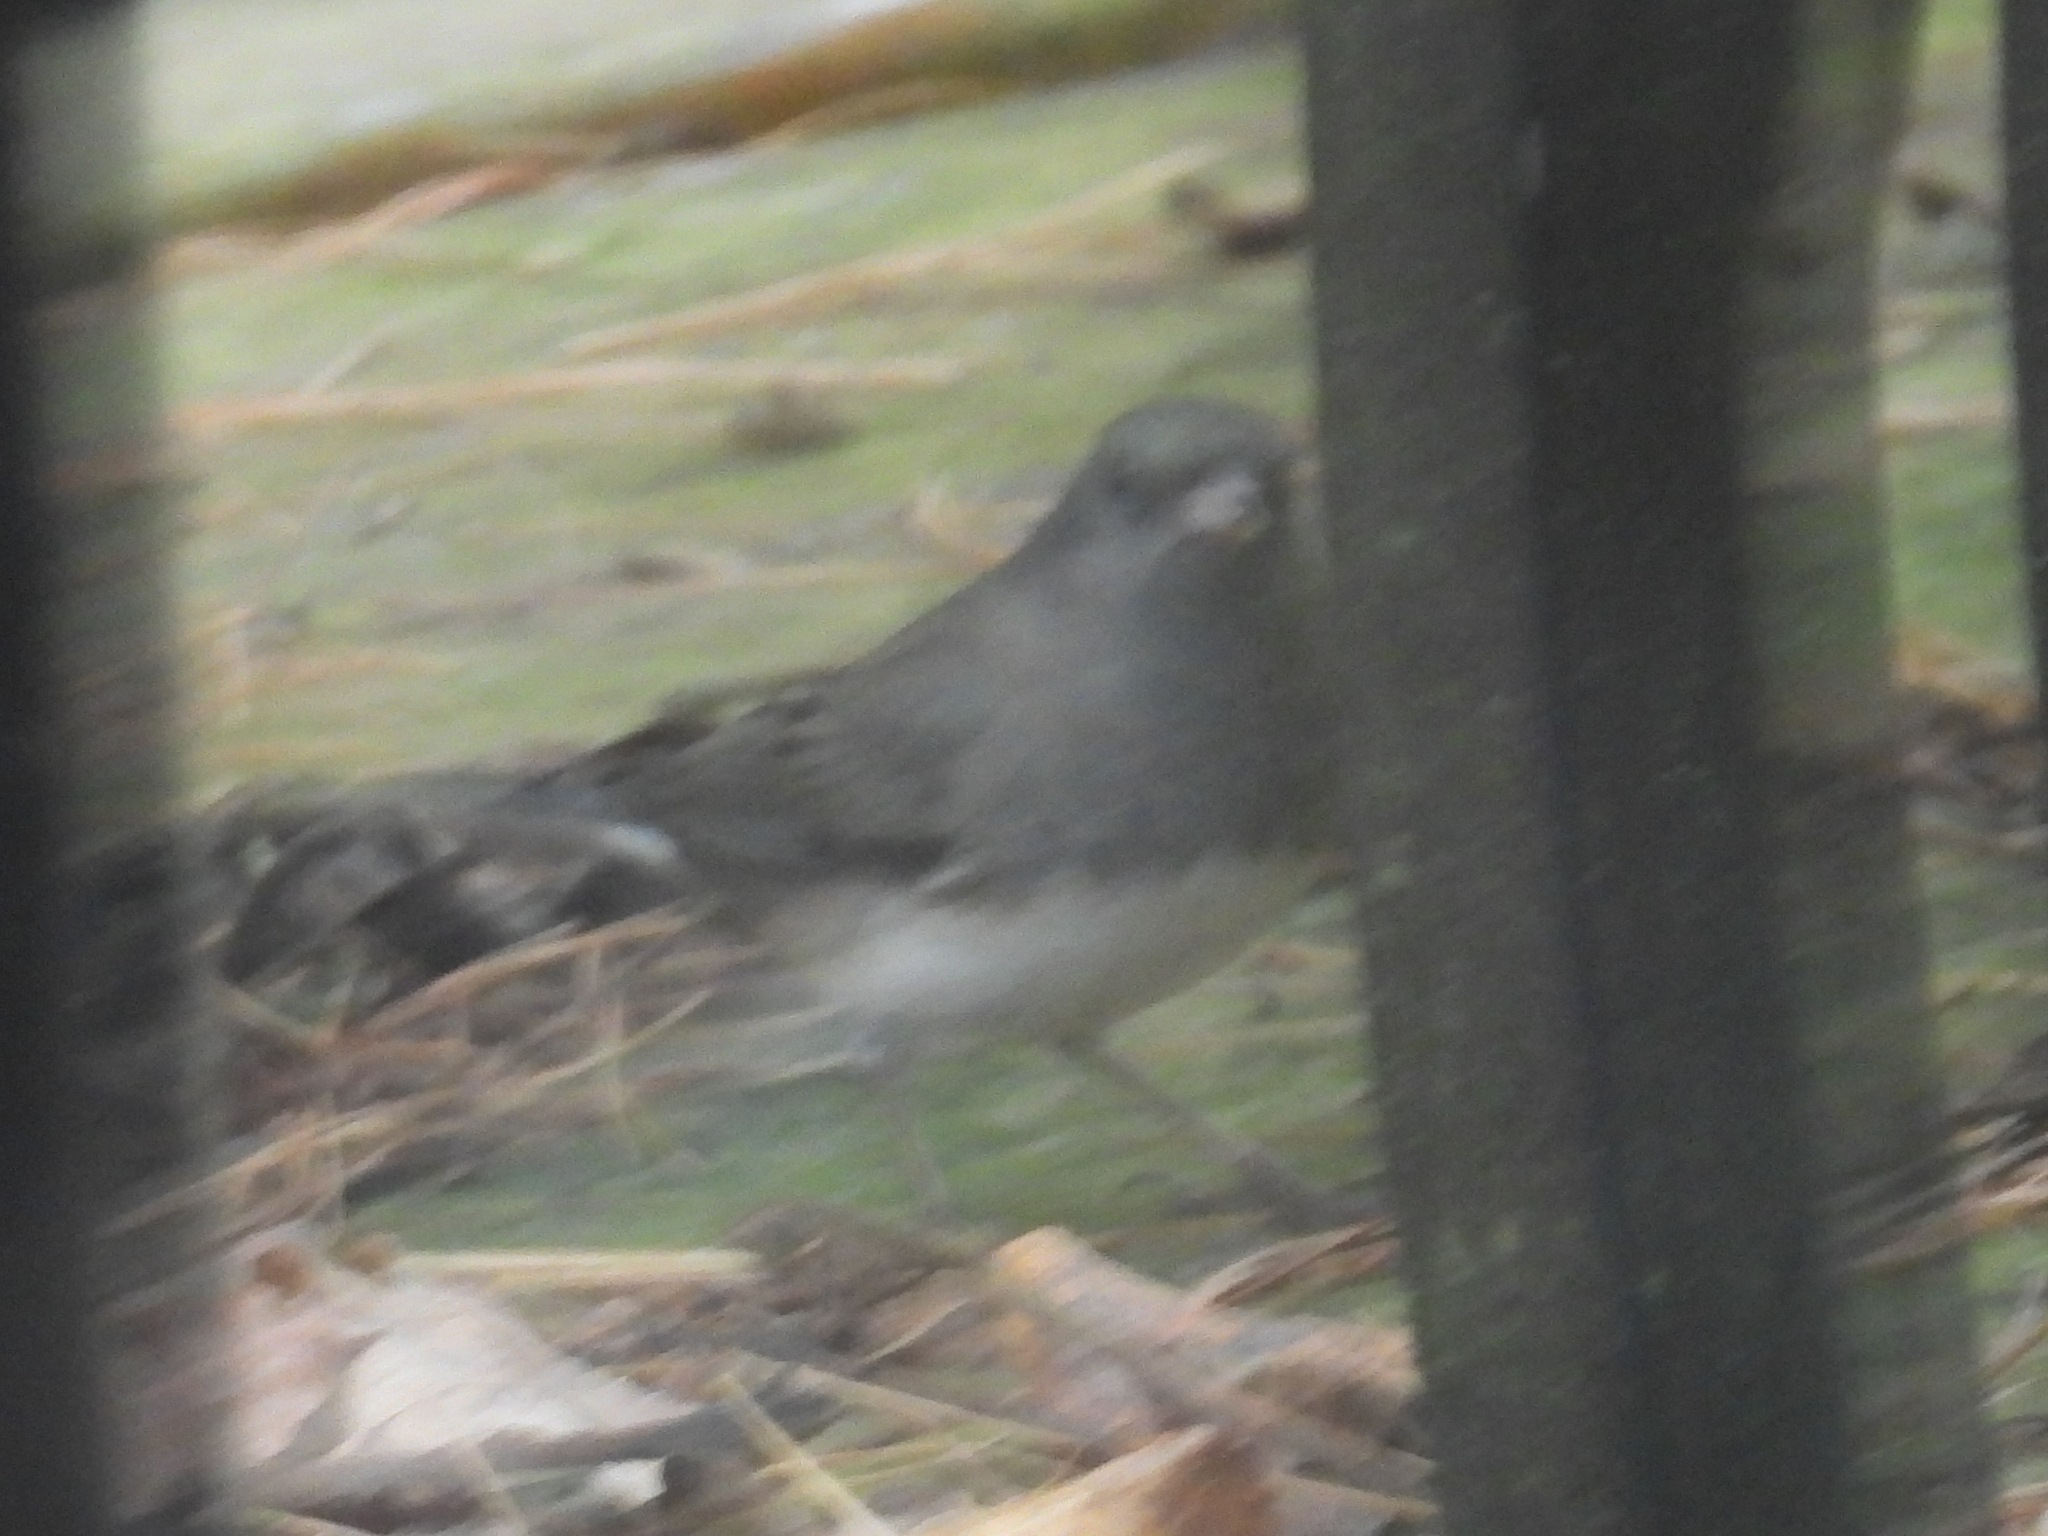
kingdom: Animalia
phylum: Chordata
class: Aves
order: Passeriformes
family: Passerellidae
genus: Junco
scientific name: Junco hyemalis
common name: Dark-eyed junco
